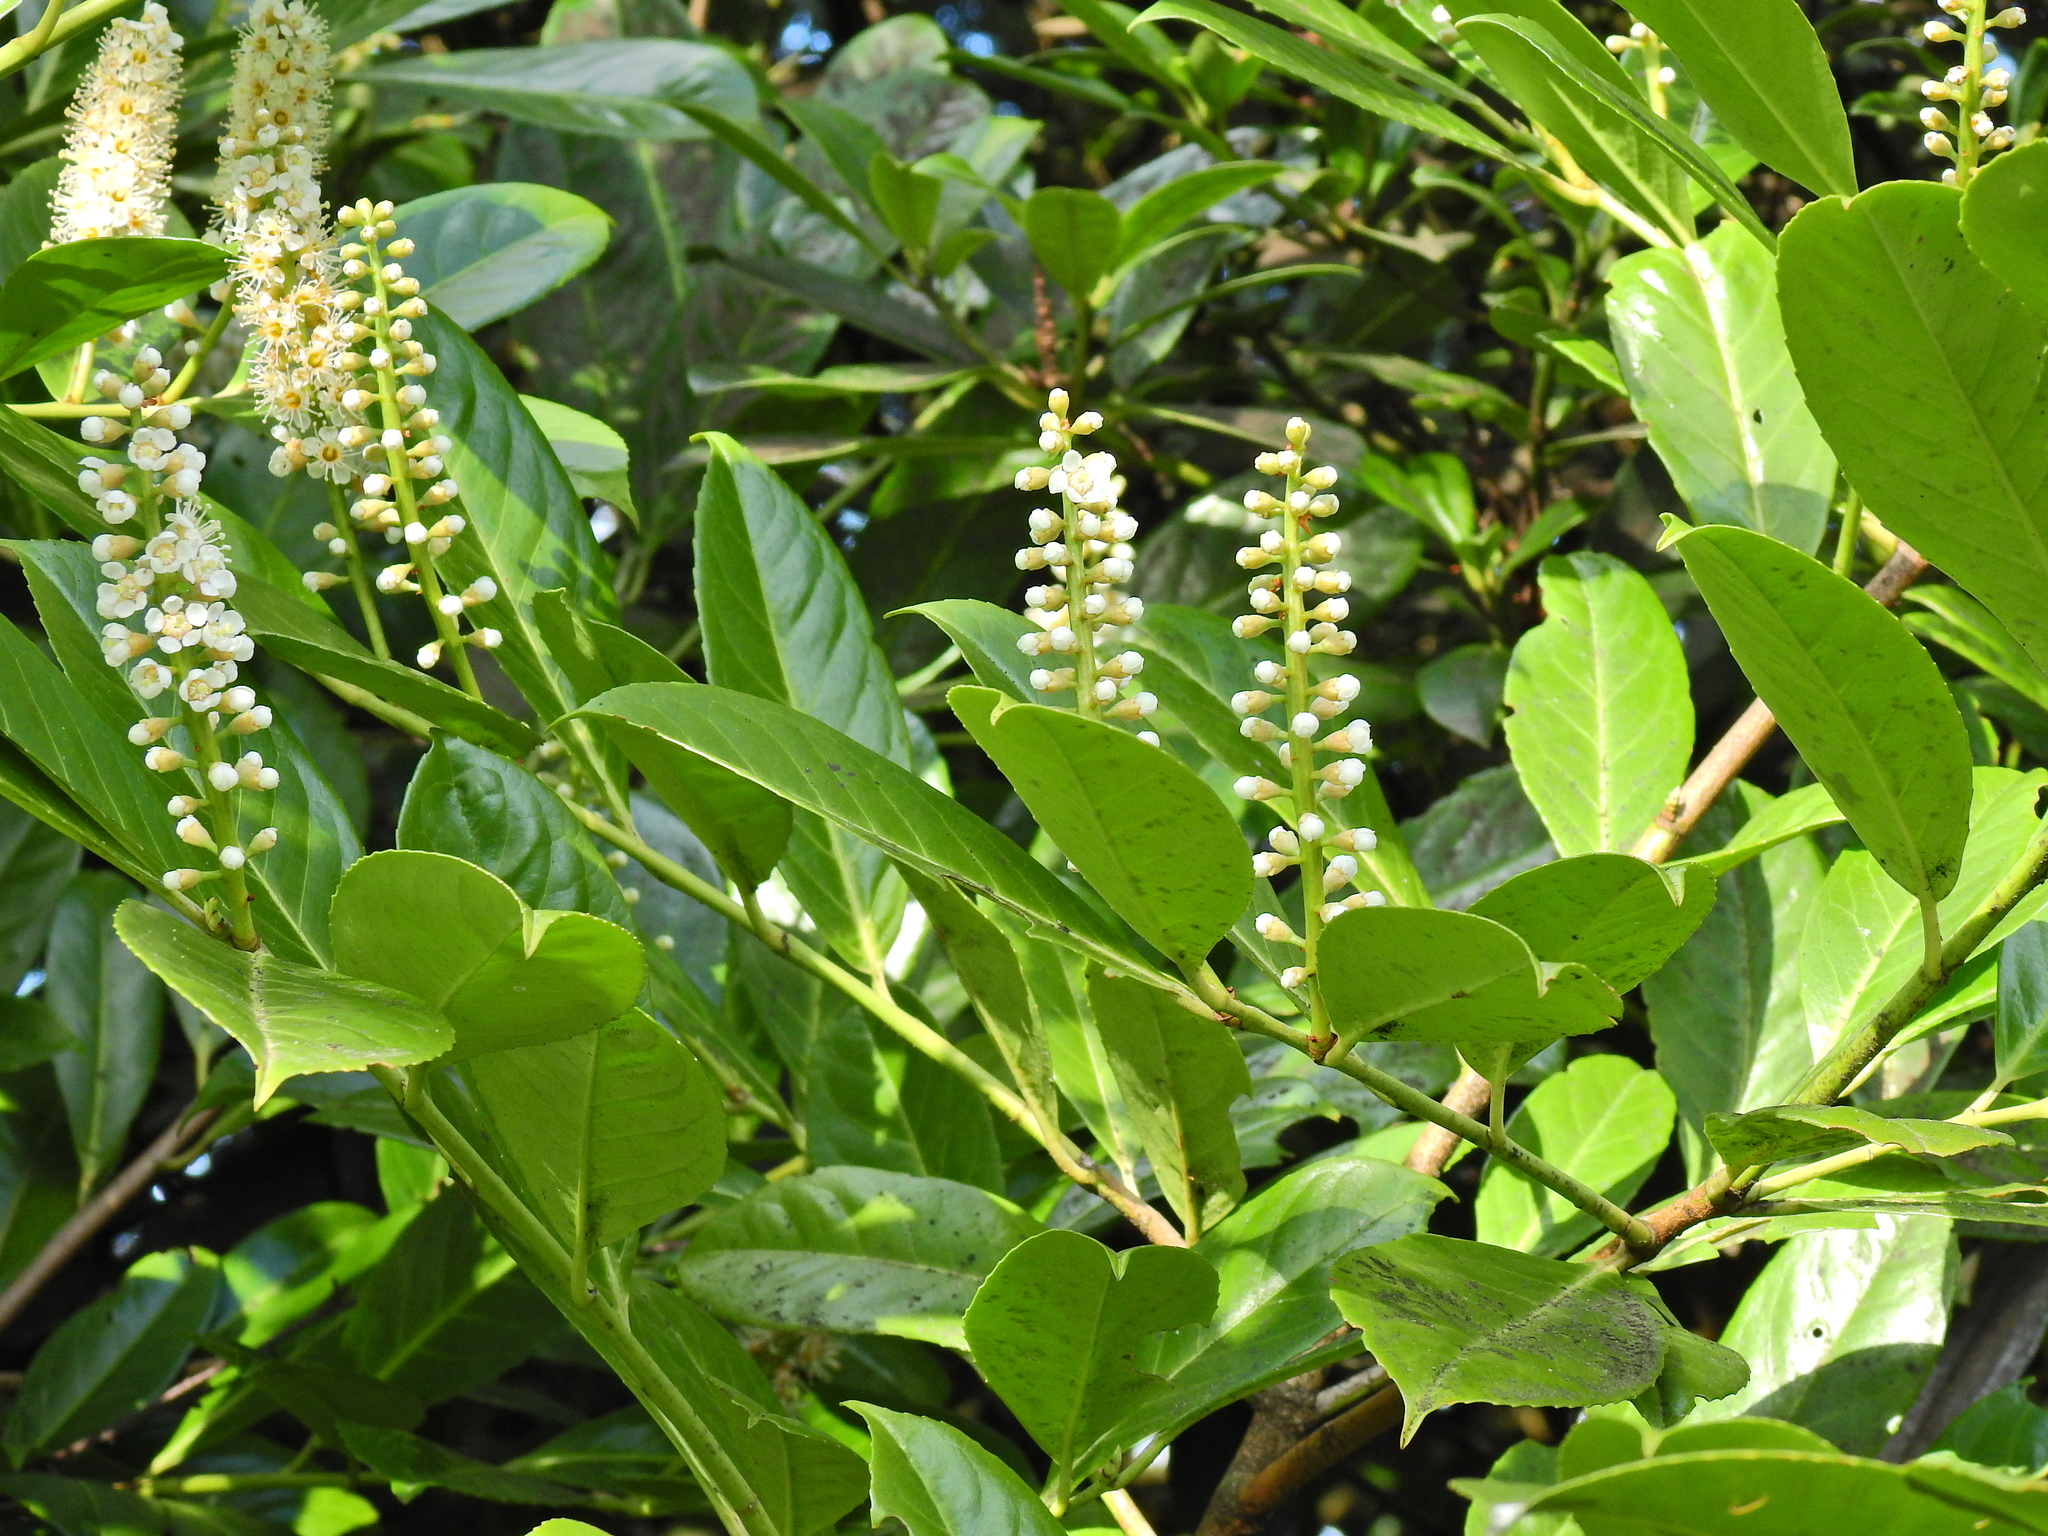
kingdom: Plantae
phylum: Tracheophyta
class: Magnoliopsida
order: Rosales
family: Rosaceae
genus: Prunus
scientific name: Prunus laurocerasus
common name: Cherry laurel
